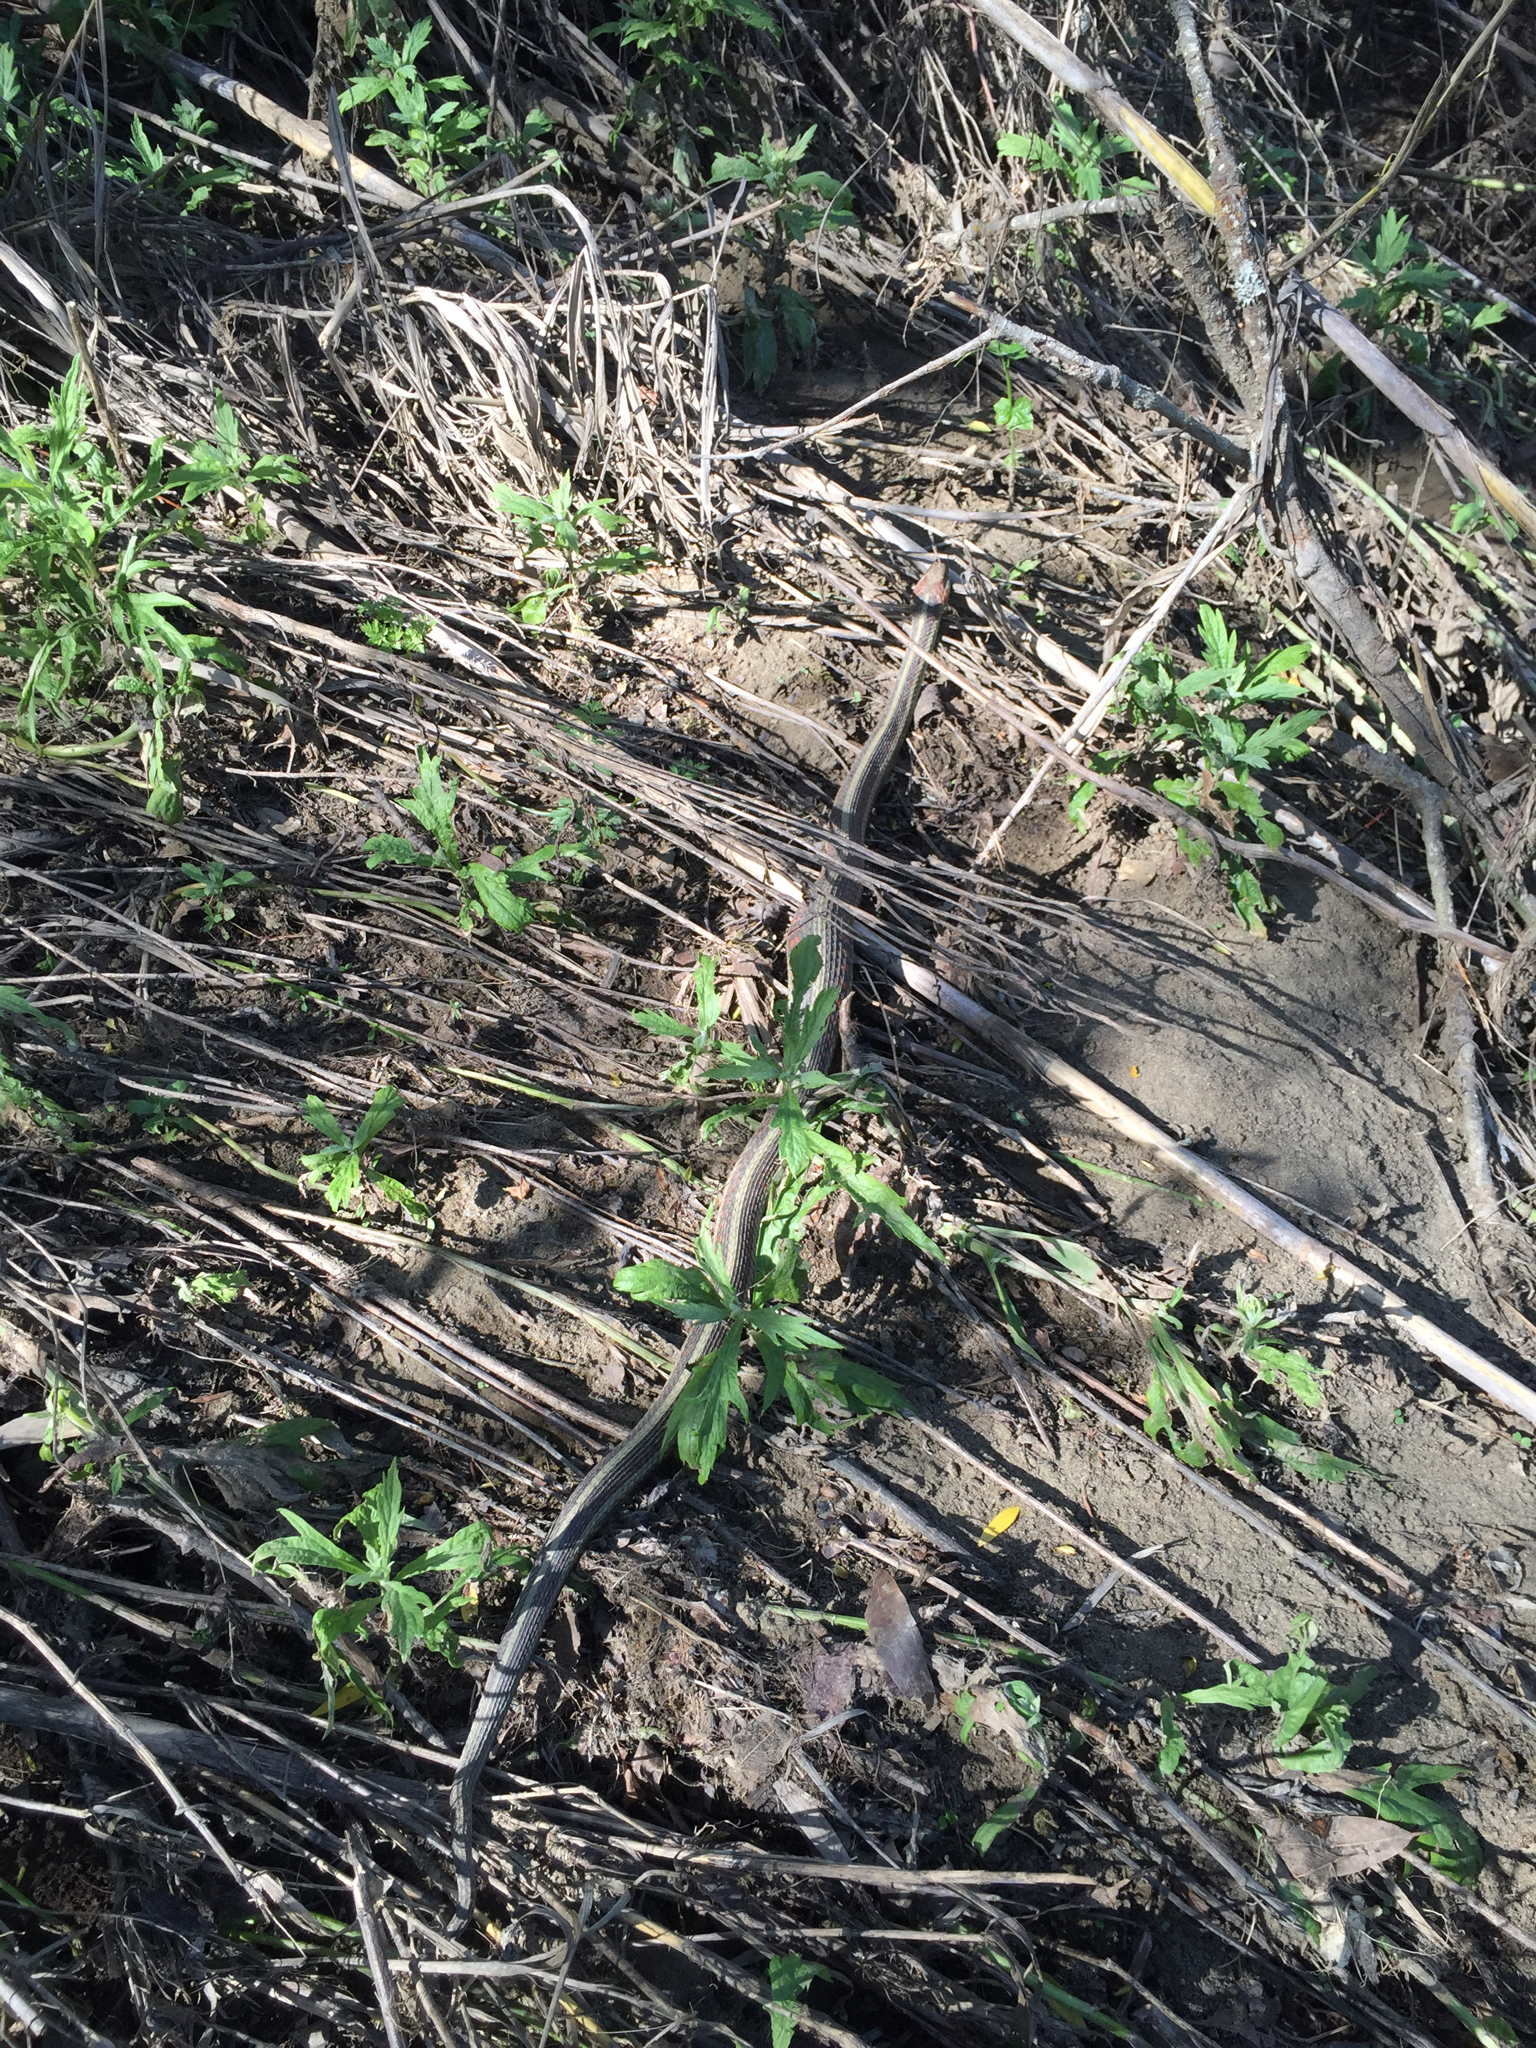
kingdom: Animalia
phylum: Chordata
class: Squamata
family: Colubridae
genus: Thamnophis
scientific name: Thamnophis sirtalis
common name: Common garter snake
